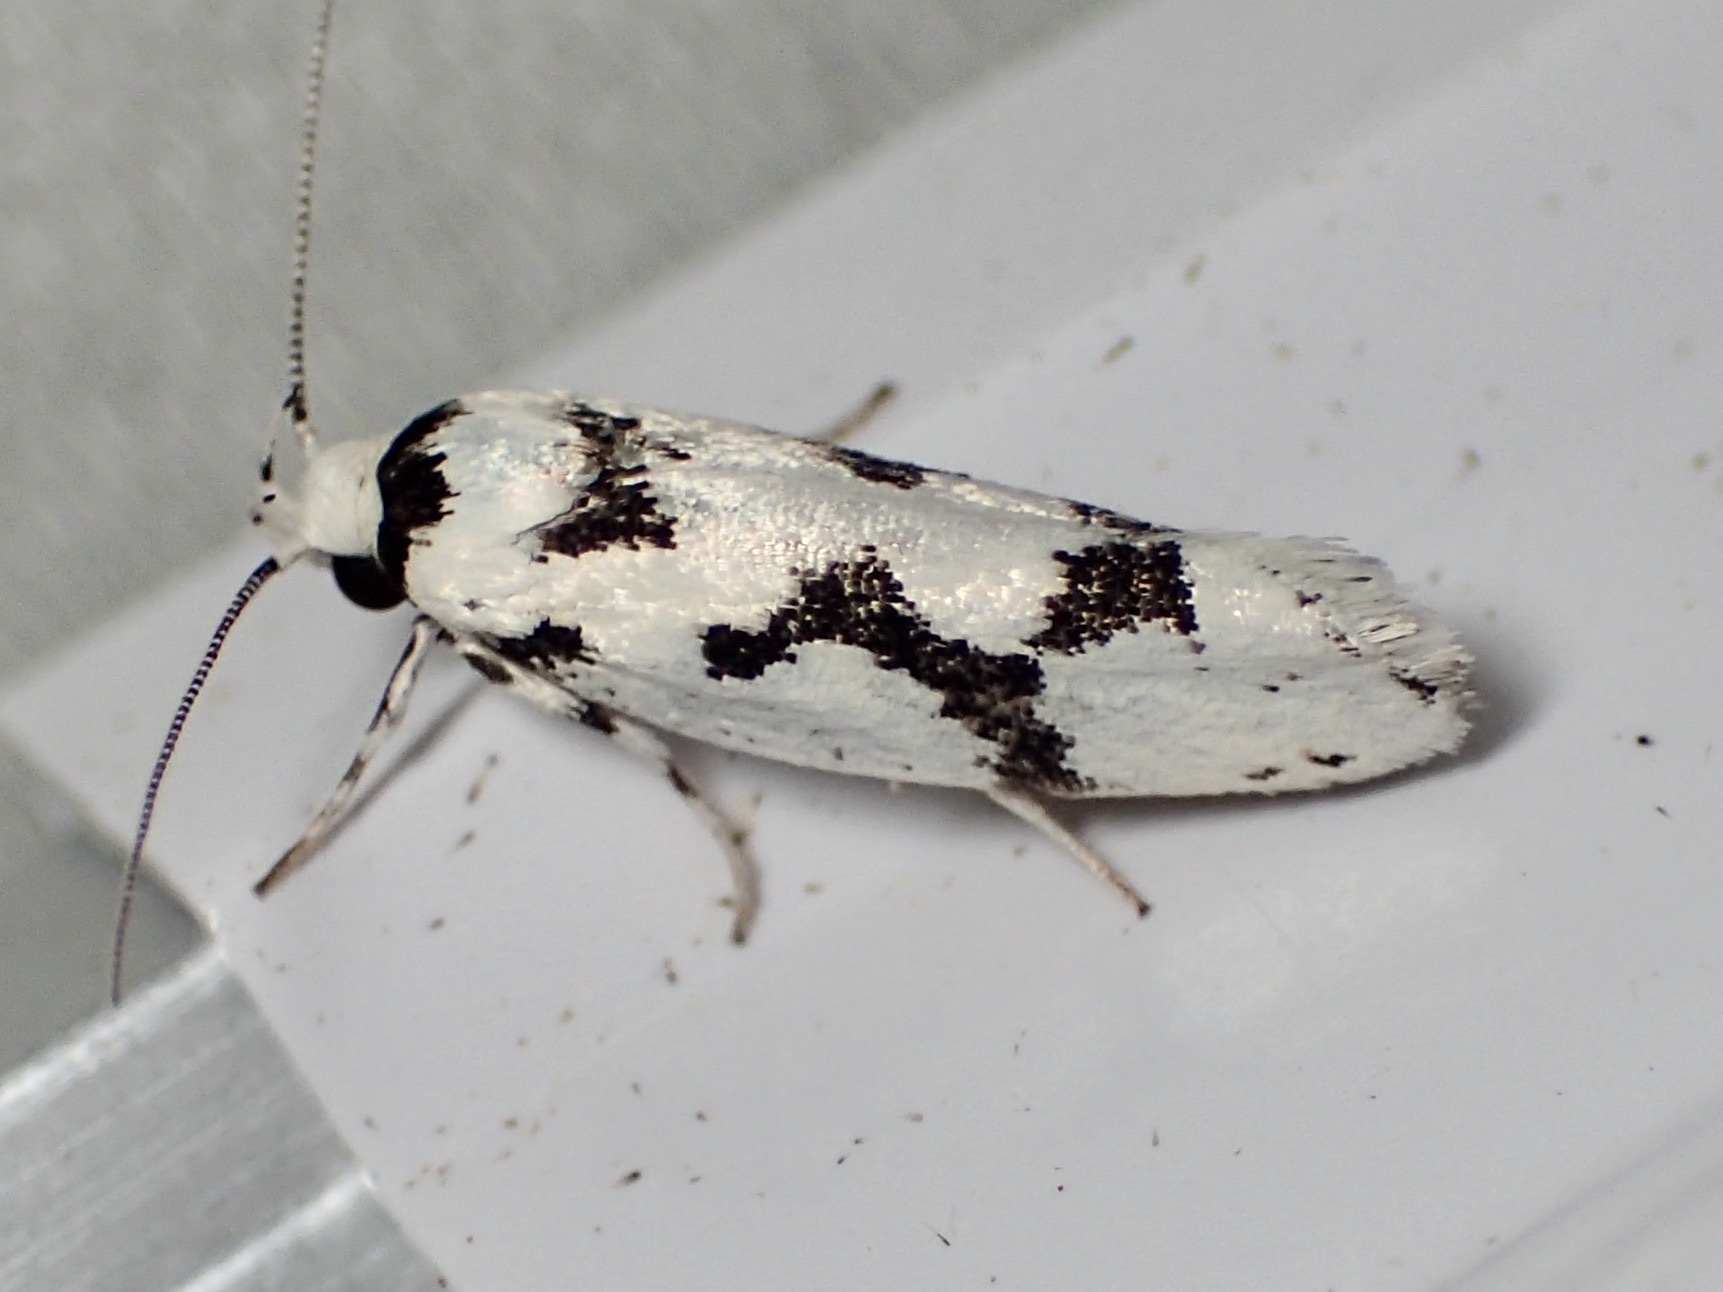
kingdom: Animalia
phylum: Arthropoda
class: Insecta
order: Lepidoptera
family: Xyloryctidae
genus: Lichenaula
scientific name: Lichenaula calligrapha
